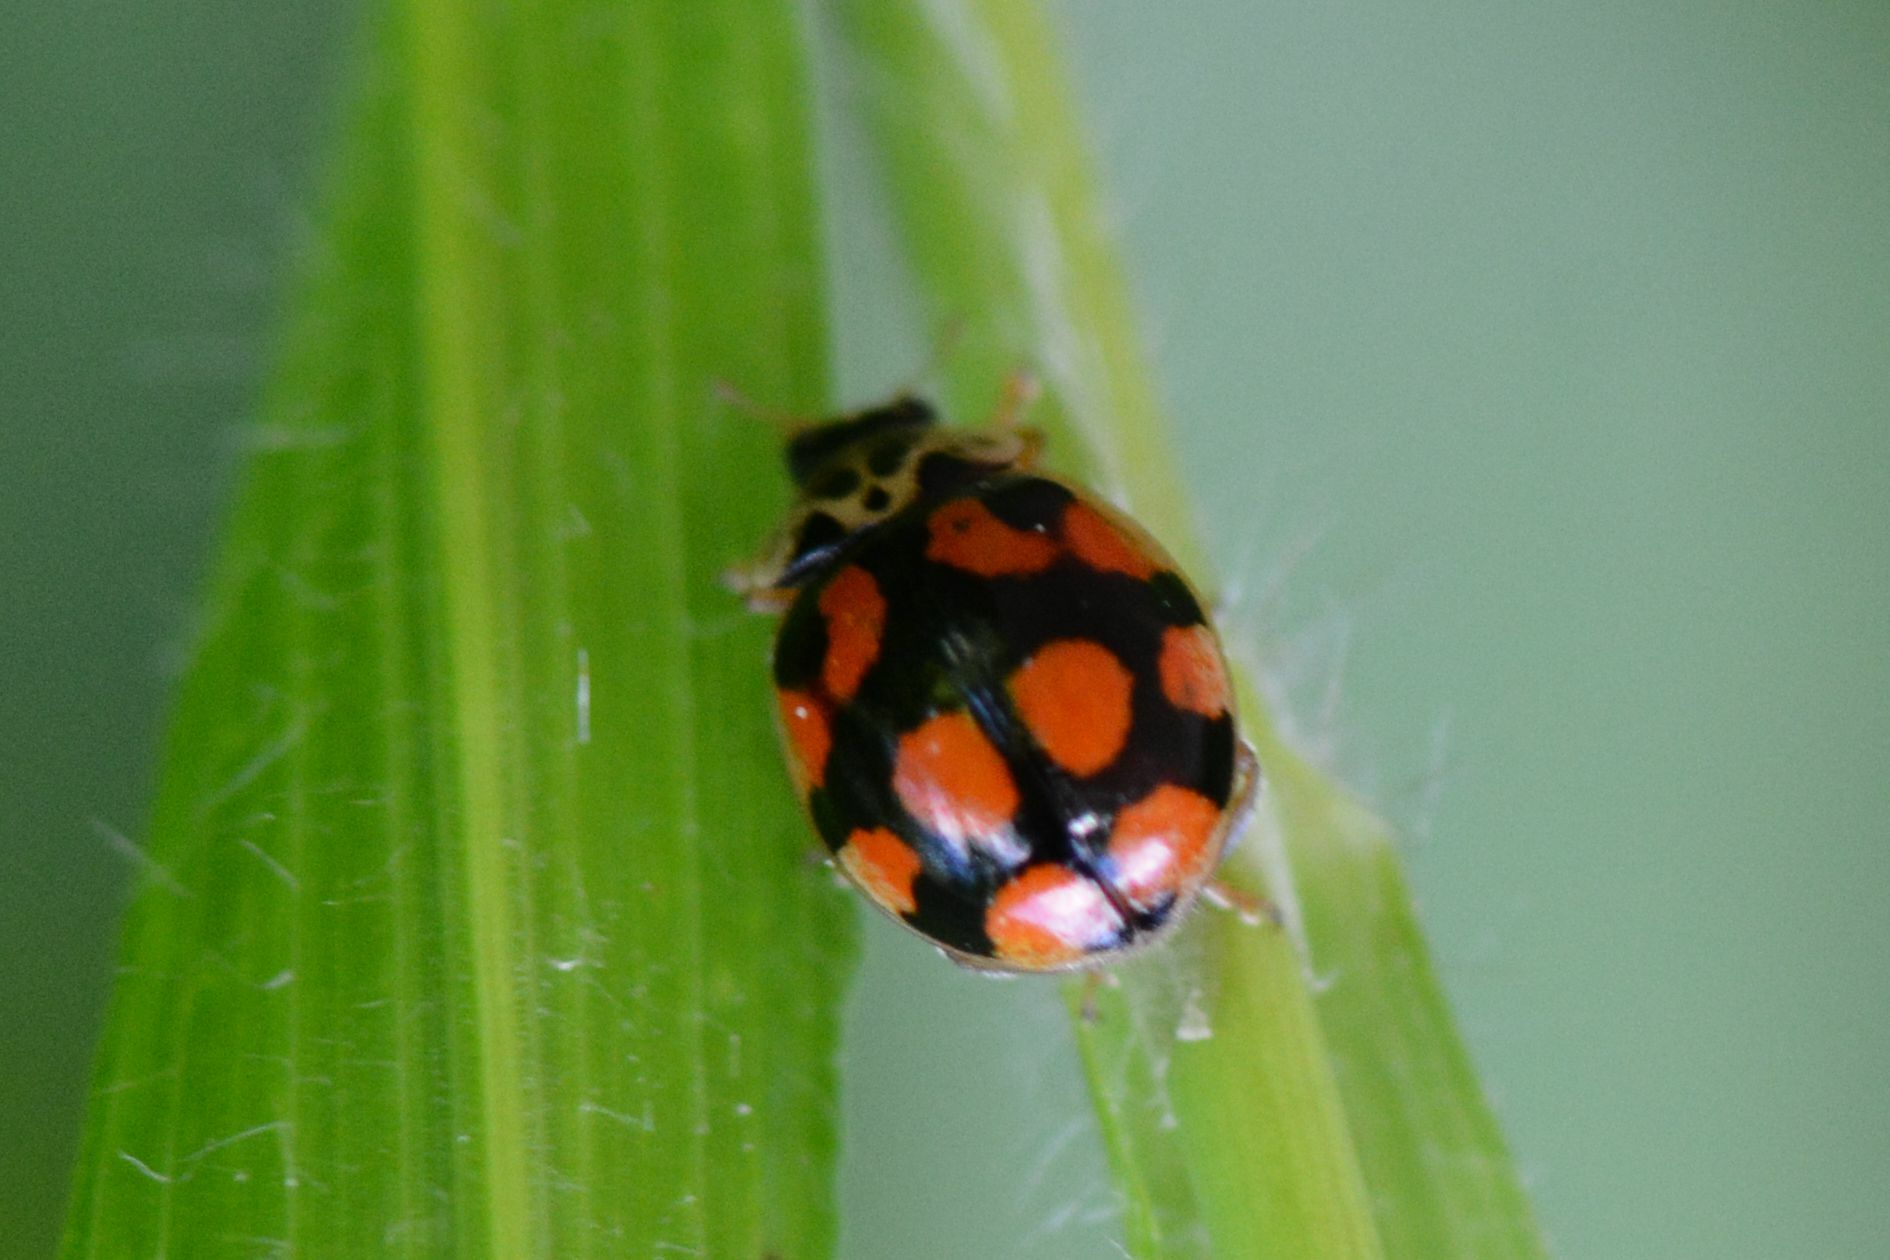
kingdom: Animalia
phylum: Arthropoda
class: Insecta
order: Coleoptera
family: Coccinellidae
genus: Adalia
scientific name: Adalia decempunctata
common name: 10-spot ladybird
